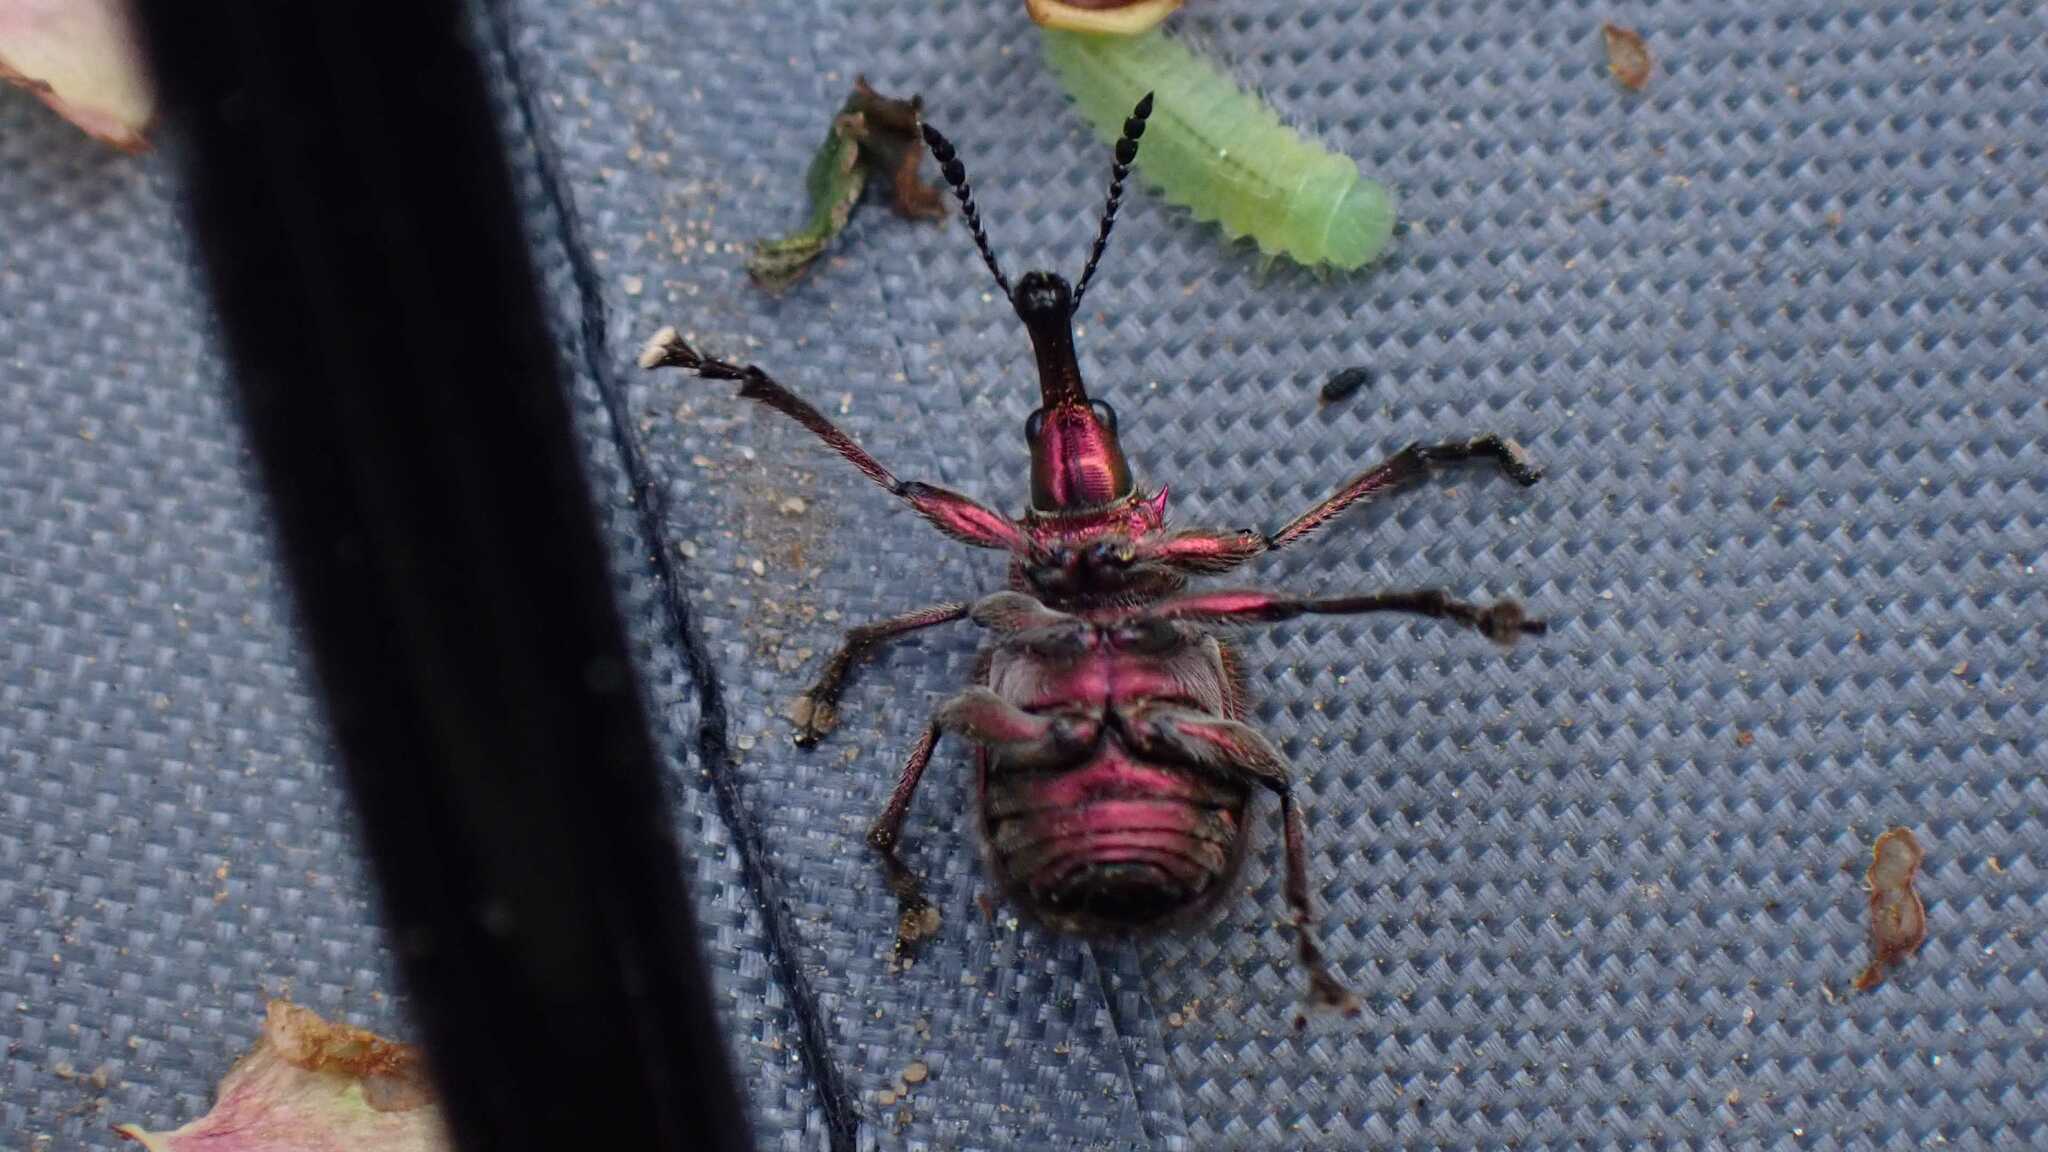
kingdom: Animalia
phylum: Arthropoda
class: Insecta
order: Coleoptera
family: Attelabidae
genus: Rhynchites
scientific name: Rhynchites auratus
